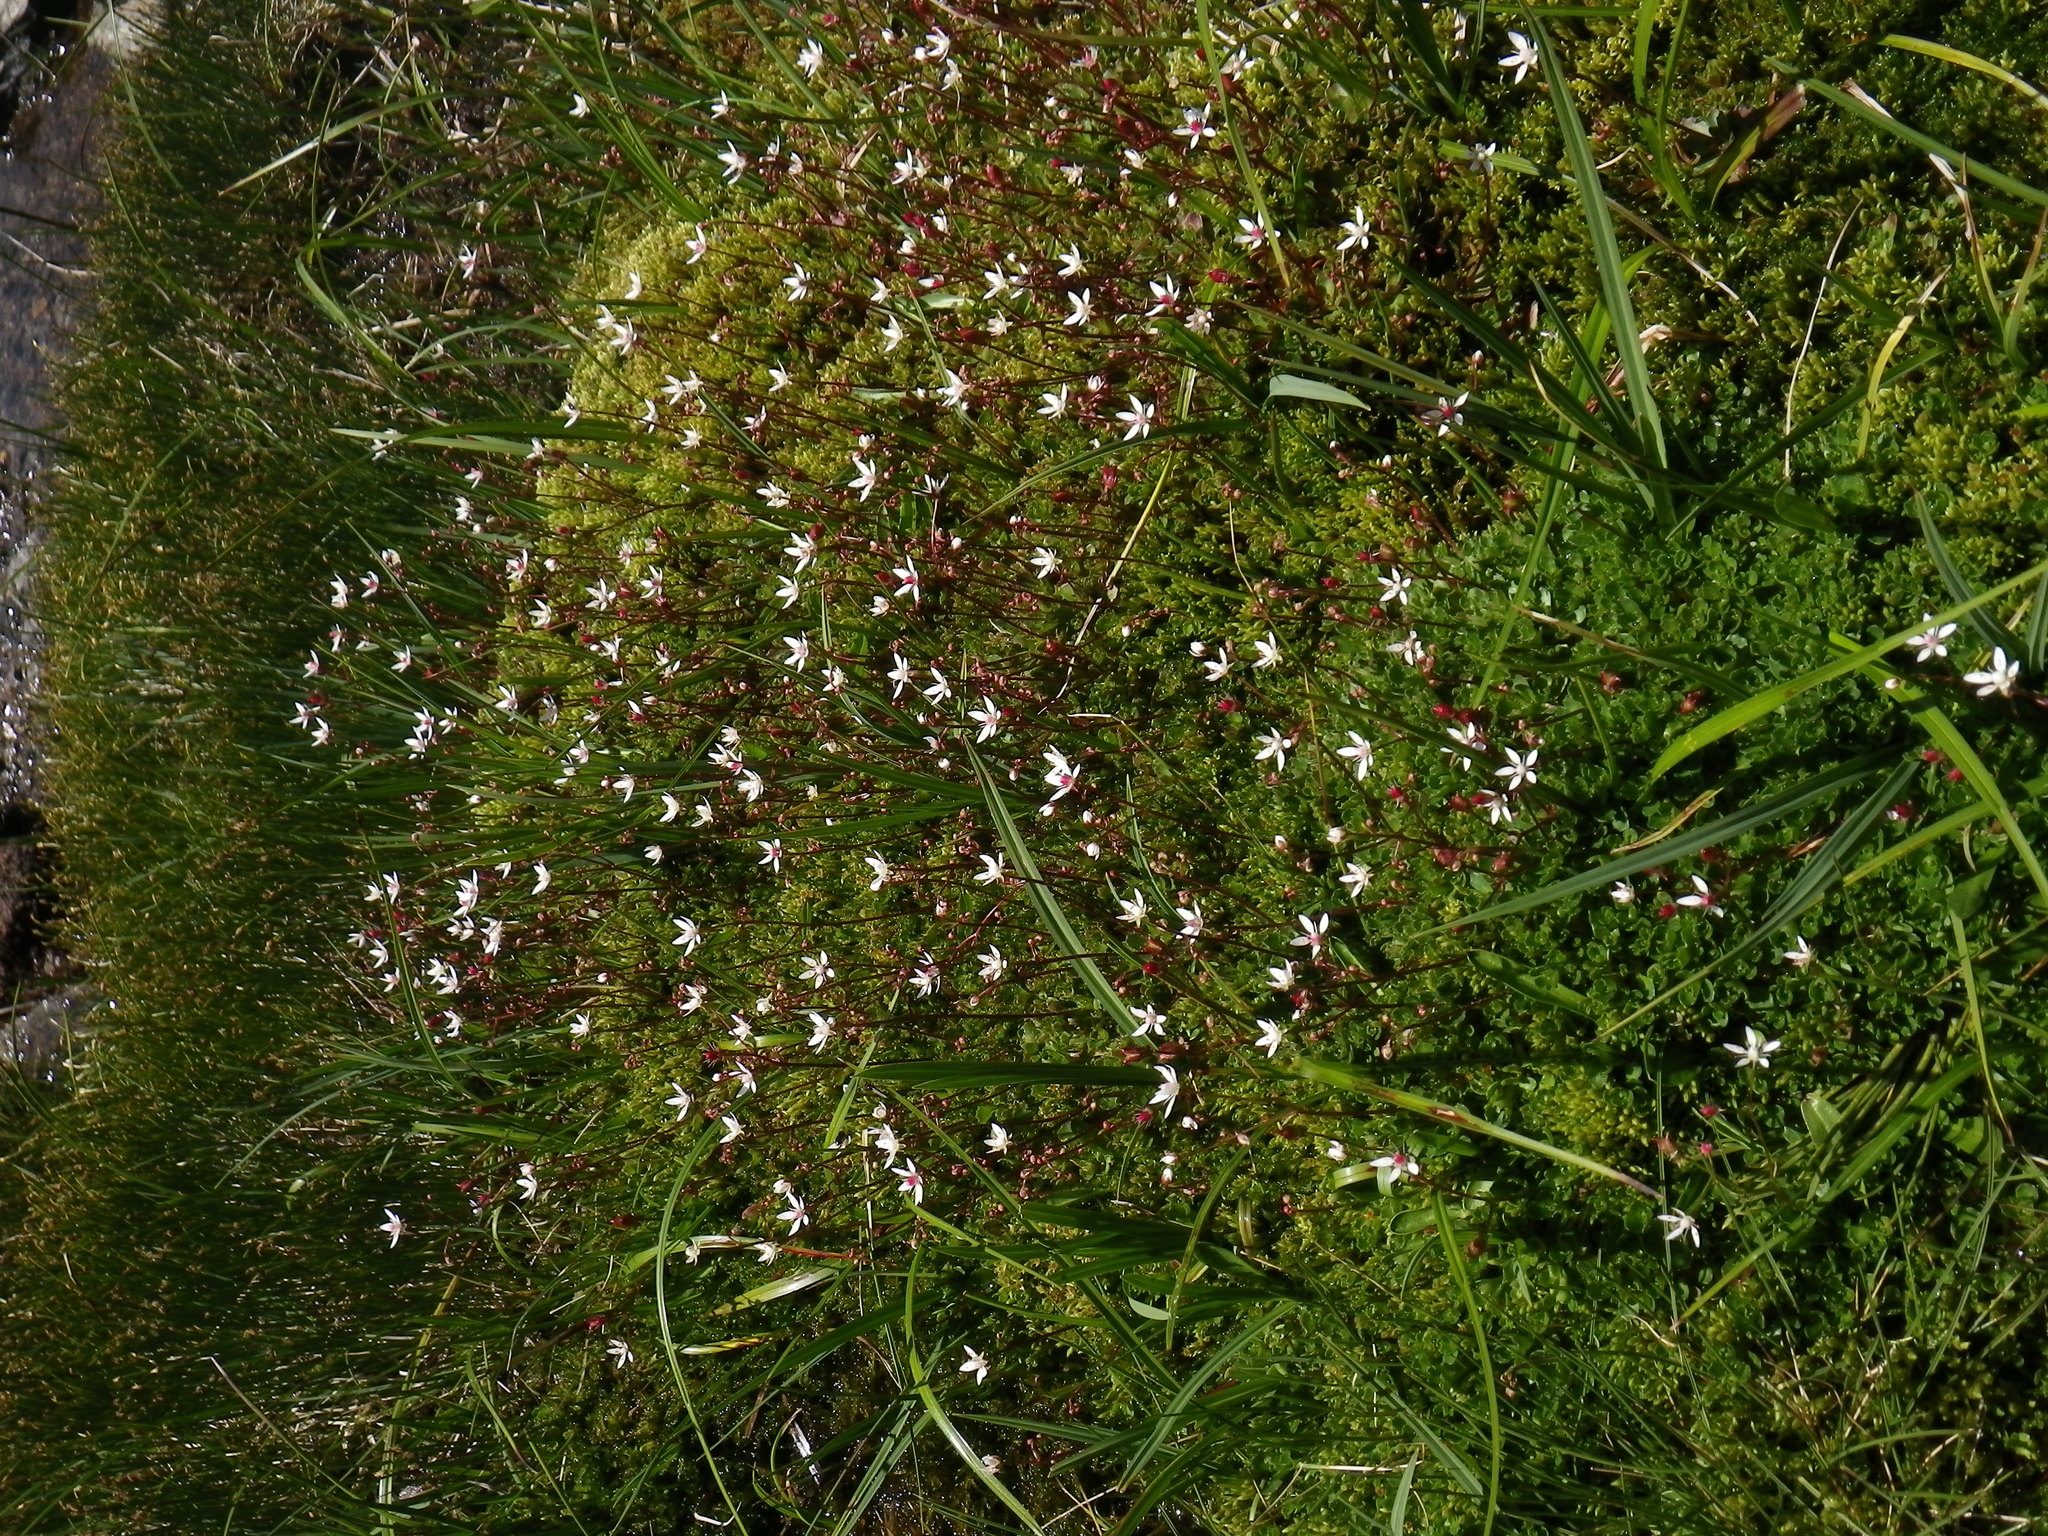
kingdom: Plantae
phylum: Tracheophyta
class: Magnoliopsida
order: Saxifragales
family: Saxifragaceae
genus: Micranthes
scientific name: Micranthes stellaris
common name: Starry saxifrage
